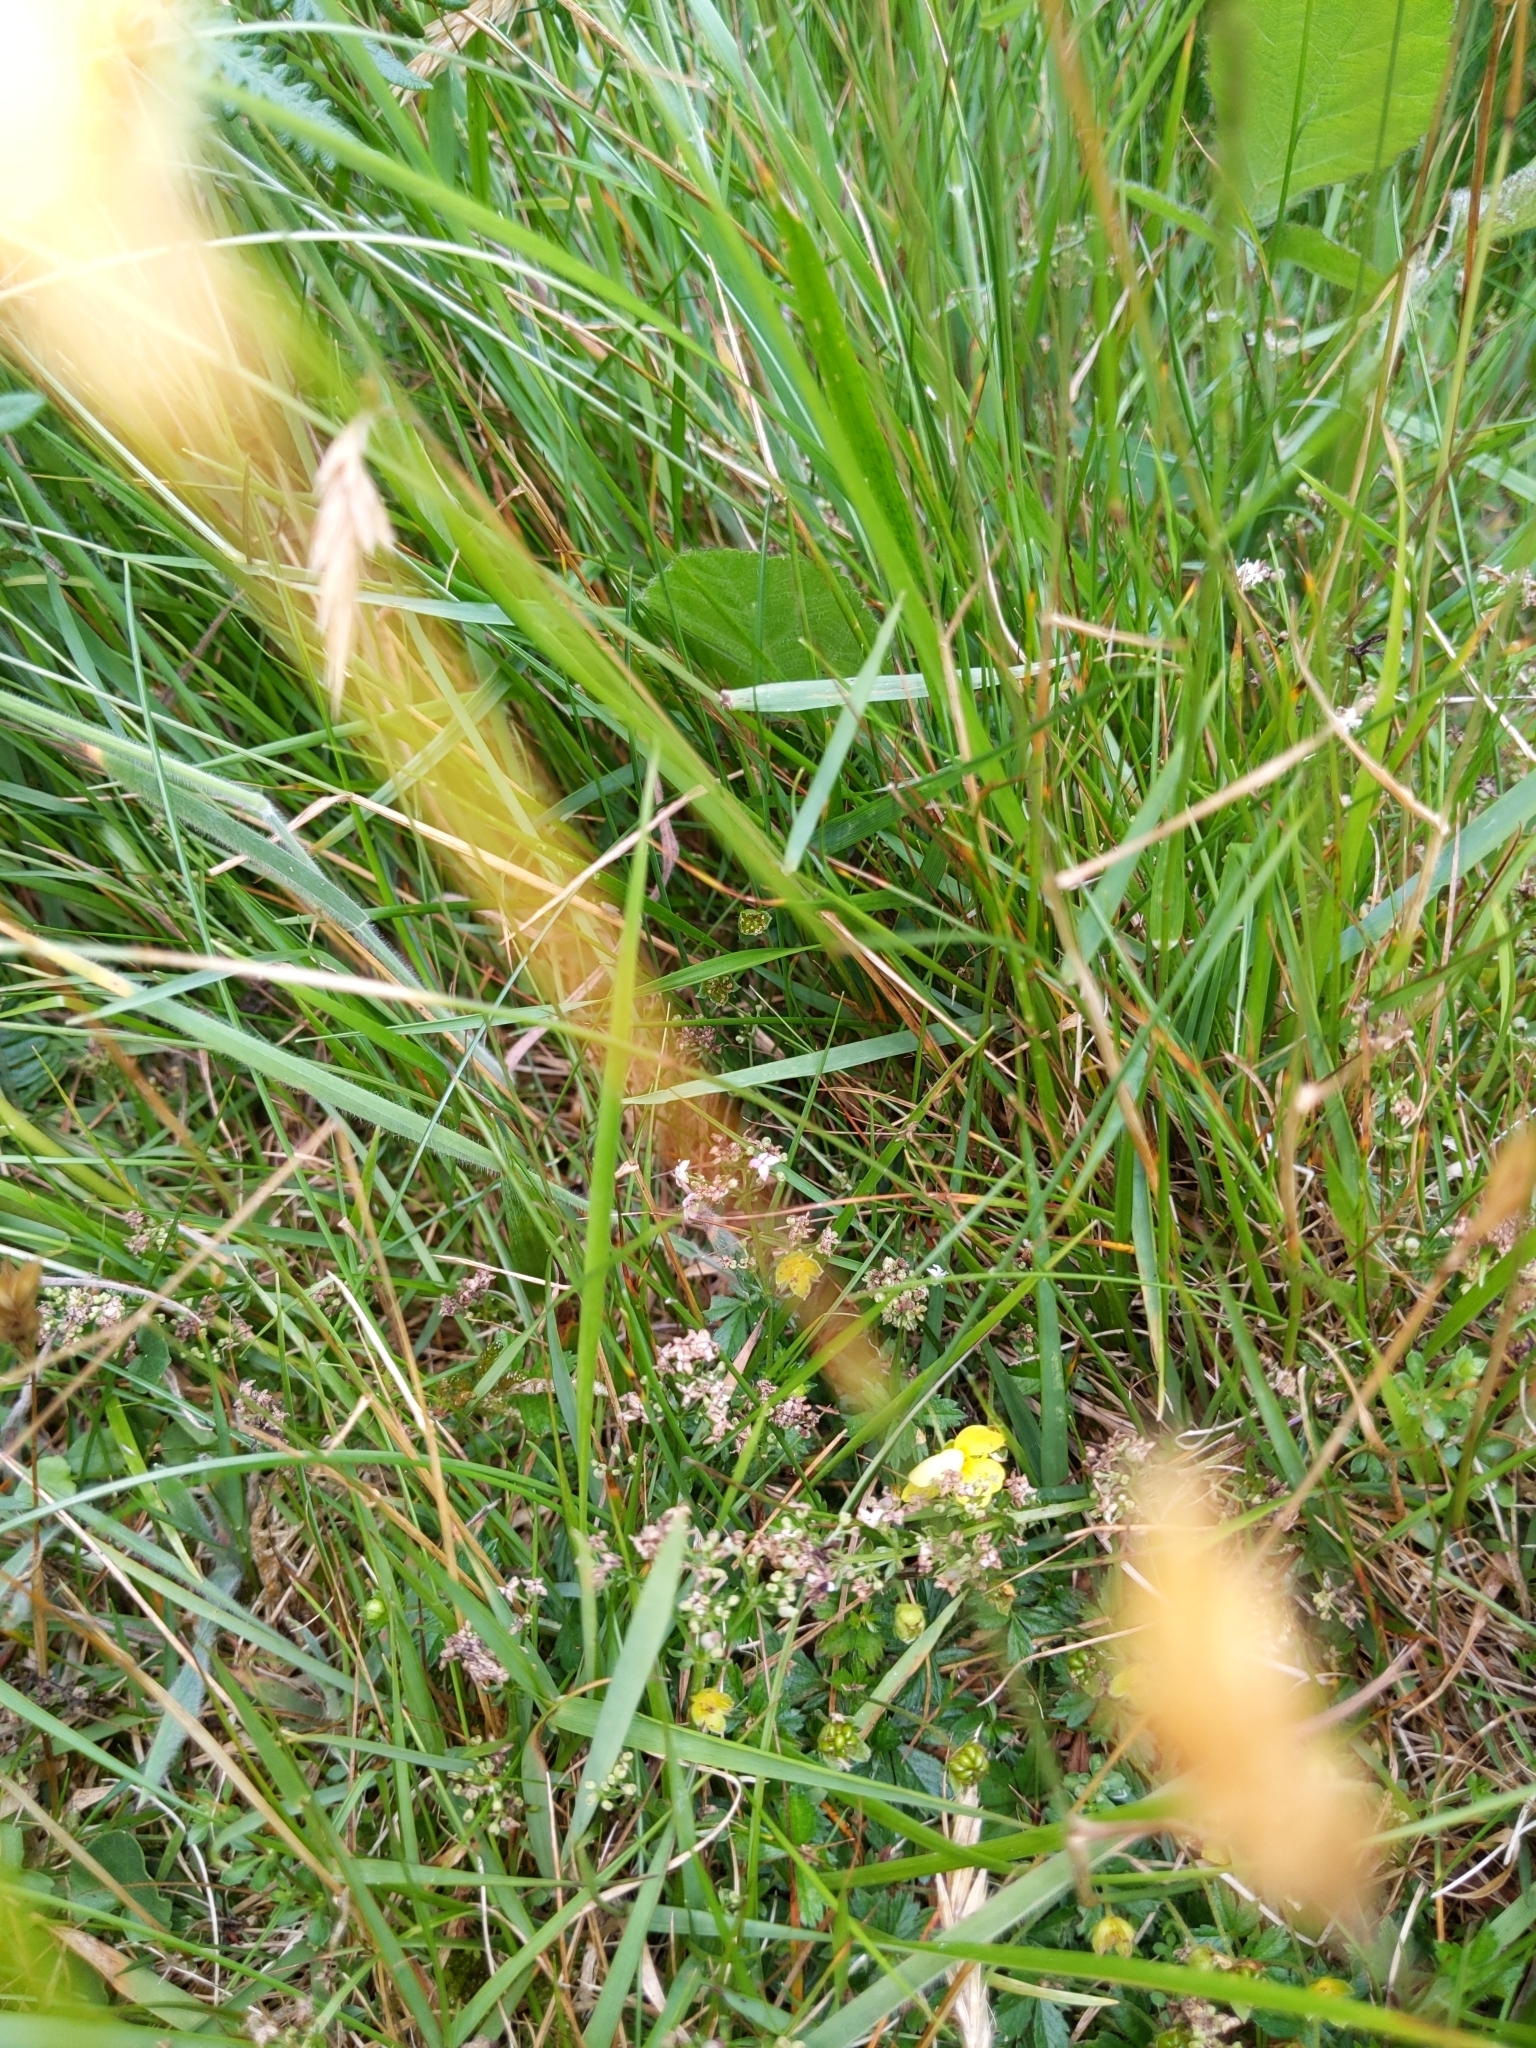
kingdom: Plantae
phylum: Tracheophyta
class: Liliopsida
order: Poales
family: Poaceae
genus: Anthoxanthum
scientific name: Anthoxanthum odoratum
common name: Sweet vernalgrass
